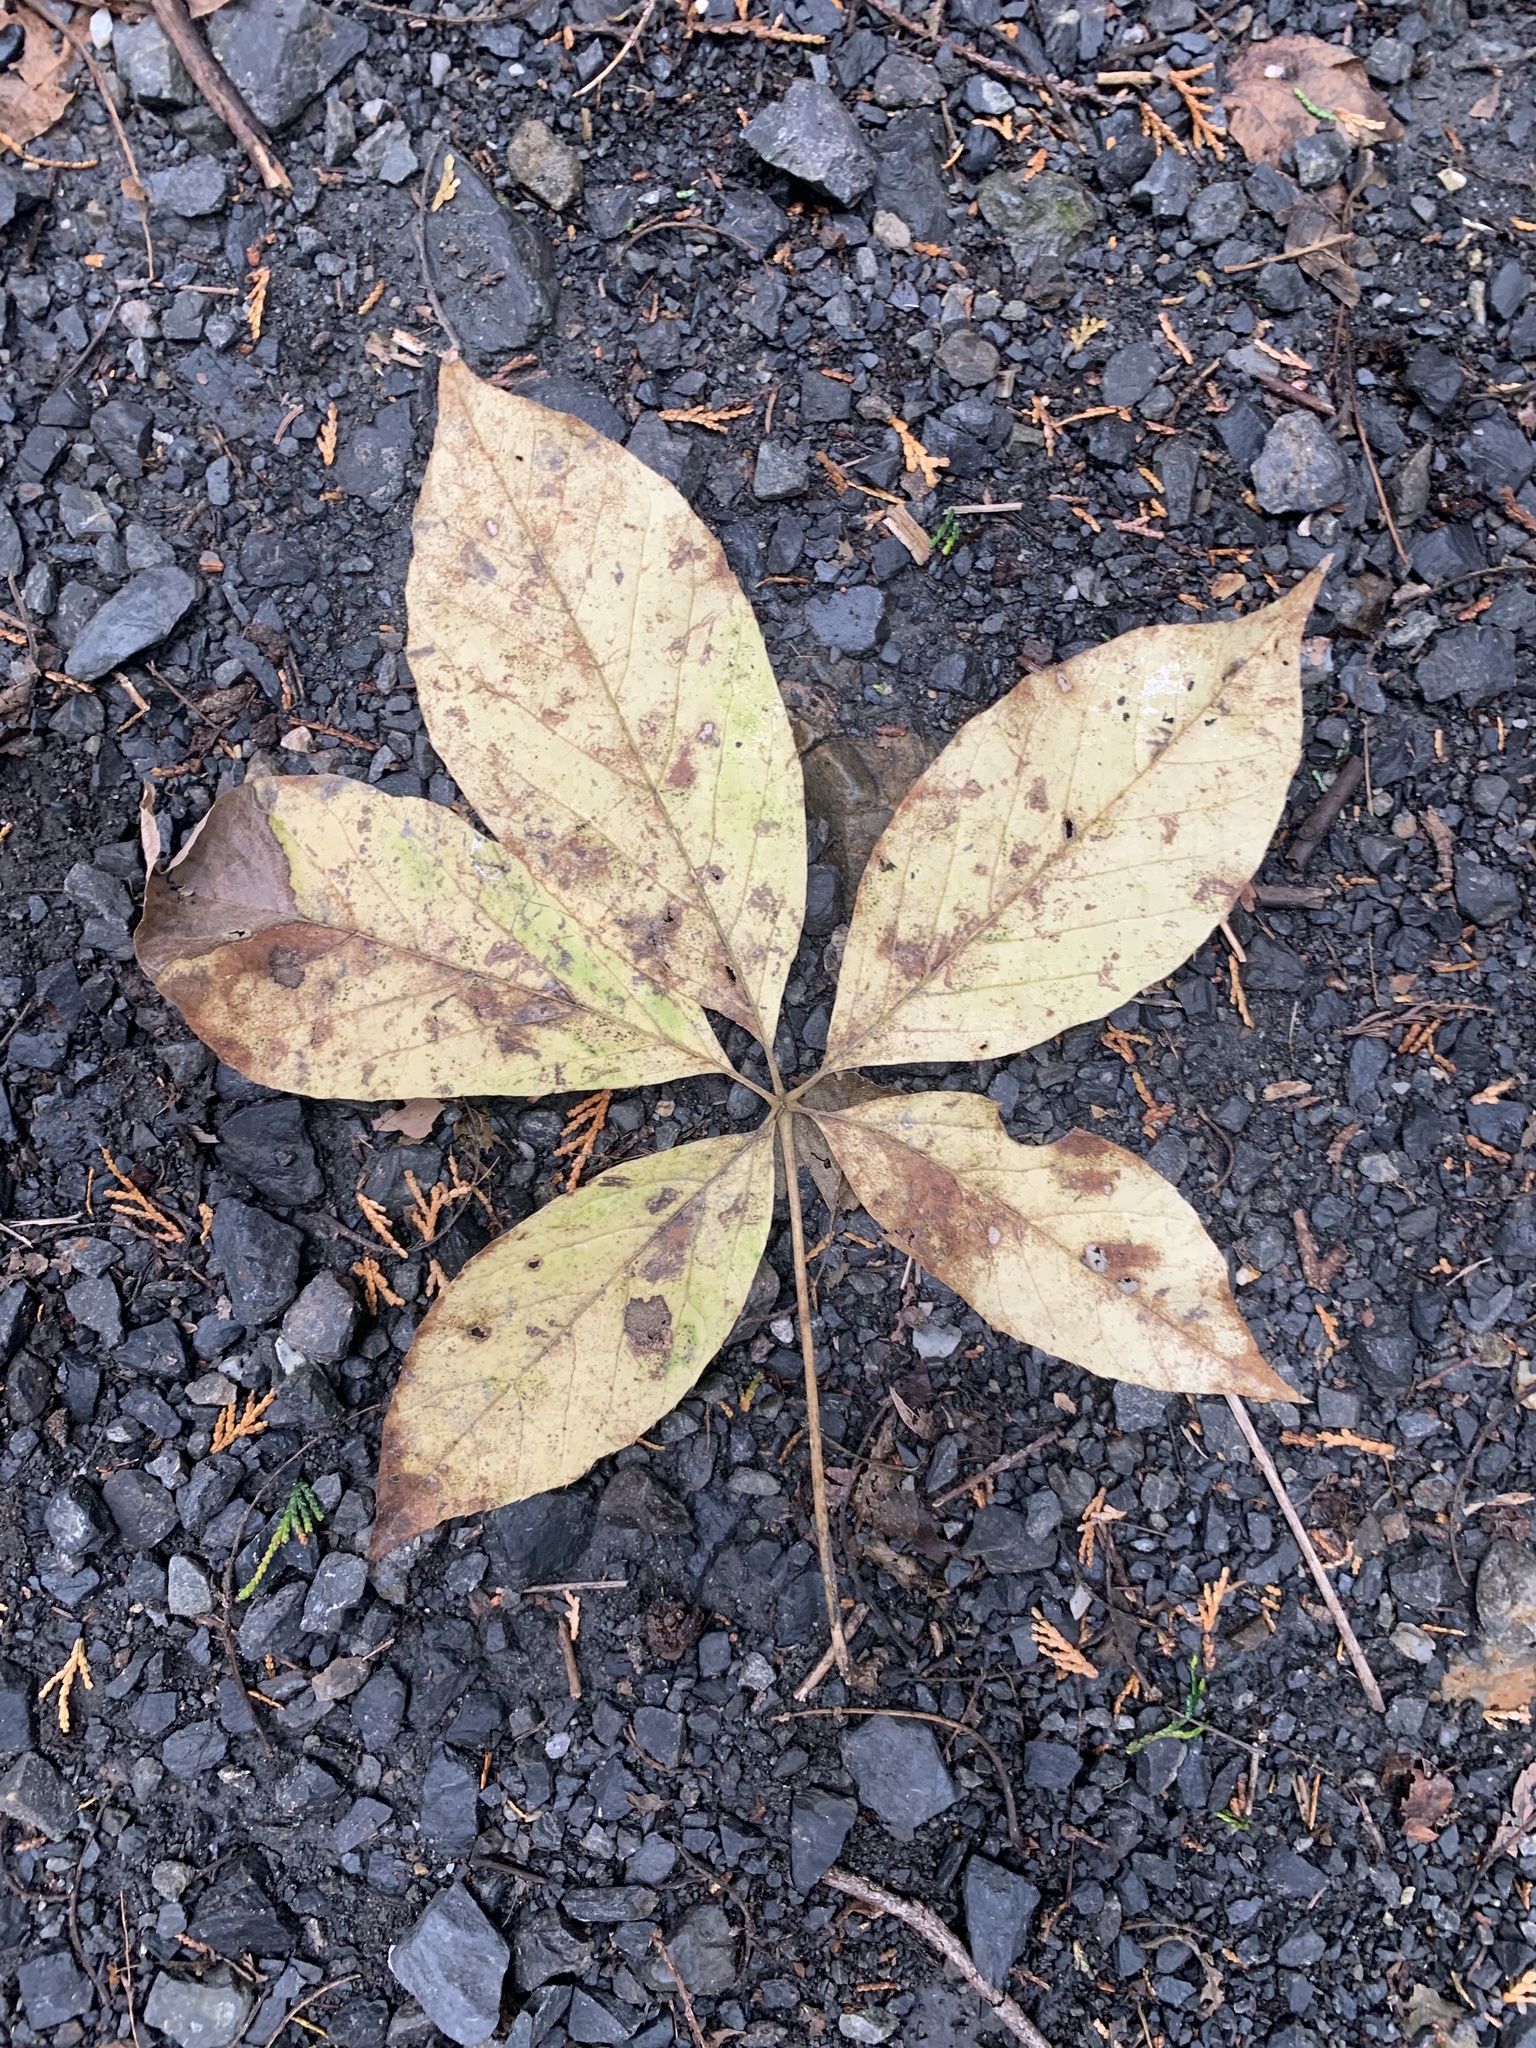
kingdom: Plantae
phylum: Tracheophyta
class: Magnoliopsida
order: Apiales
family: Araliaceae
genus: Chengiopanax
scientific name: Chengiopanax sciadophylloides
